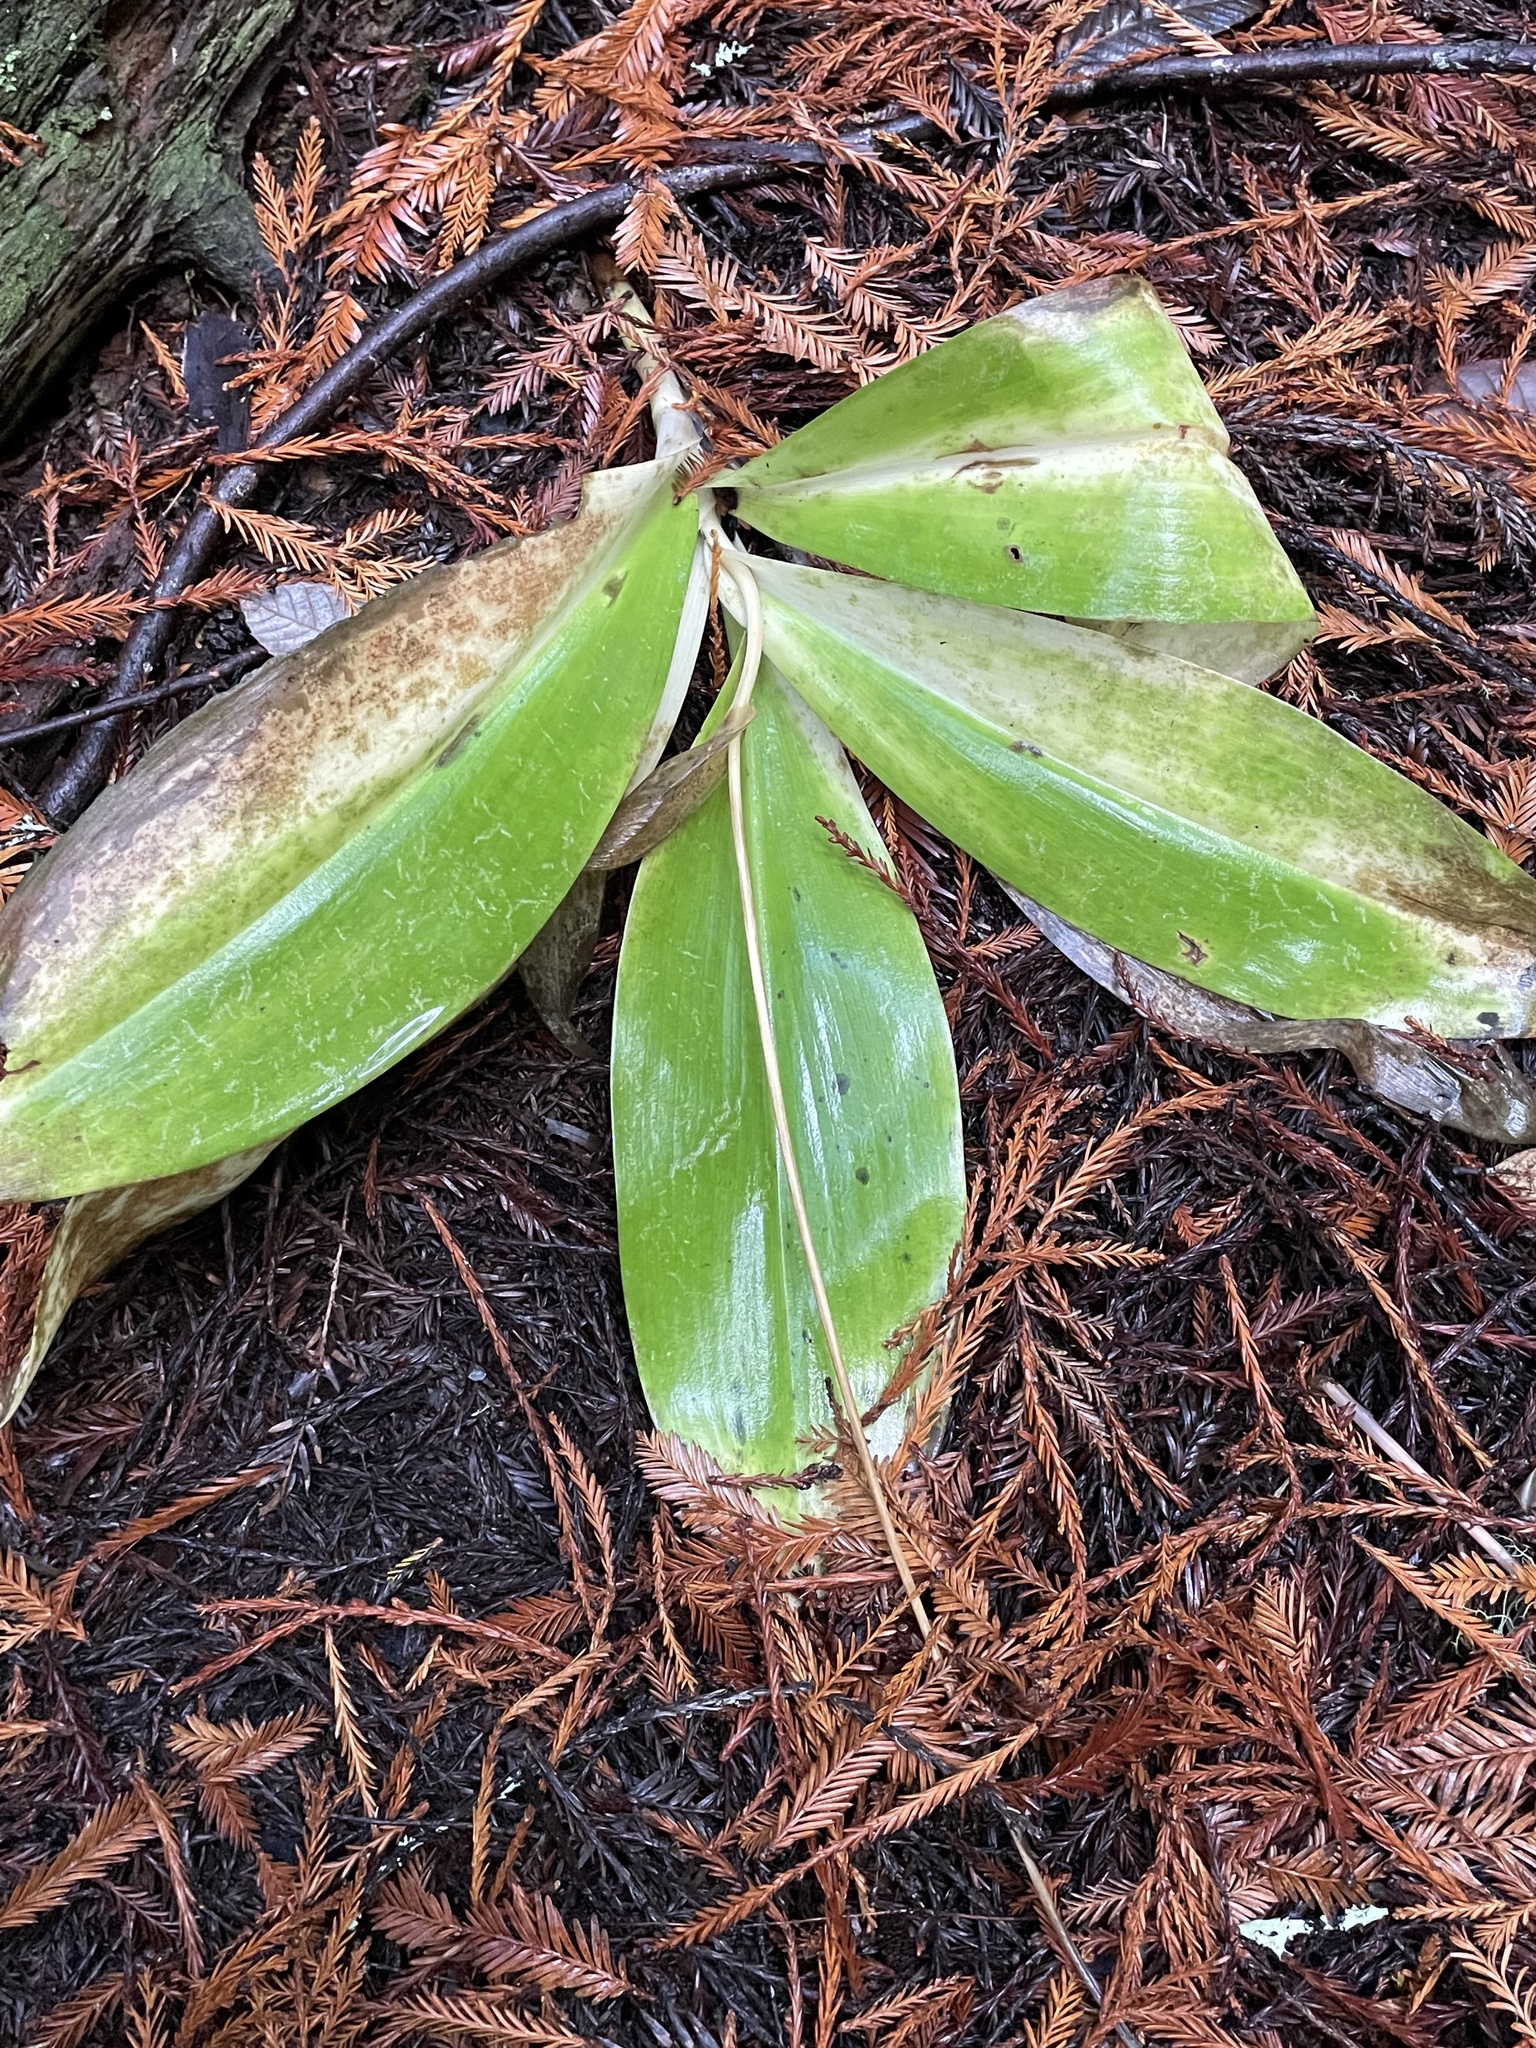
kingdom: Plantae
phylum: Tracheophyta
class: Liliopsida
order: Liliales
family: Liliaceae
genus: Clintonia
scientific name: Clintonia andrewsiana
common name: Red clintonia
